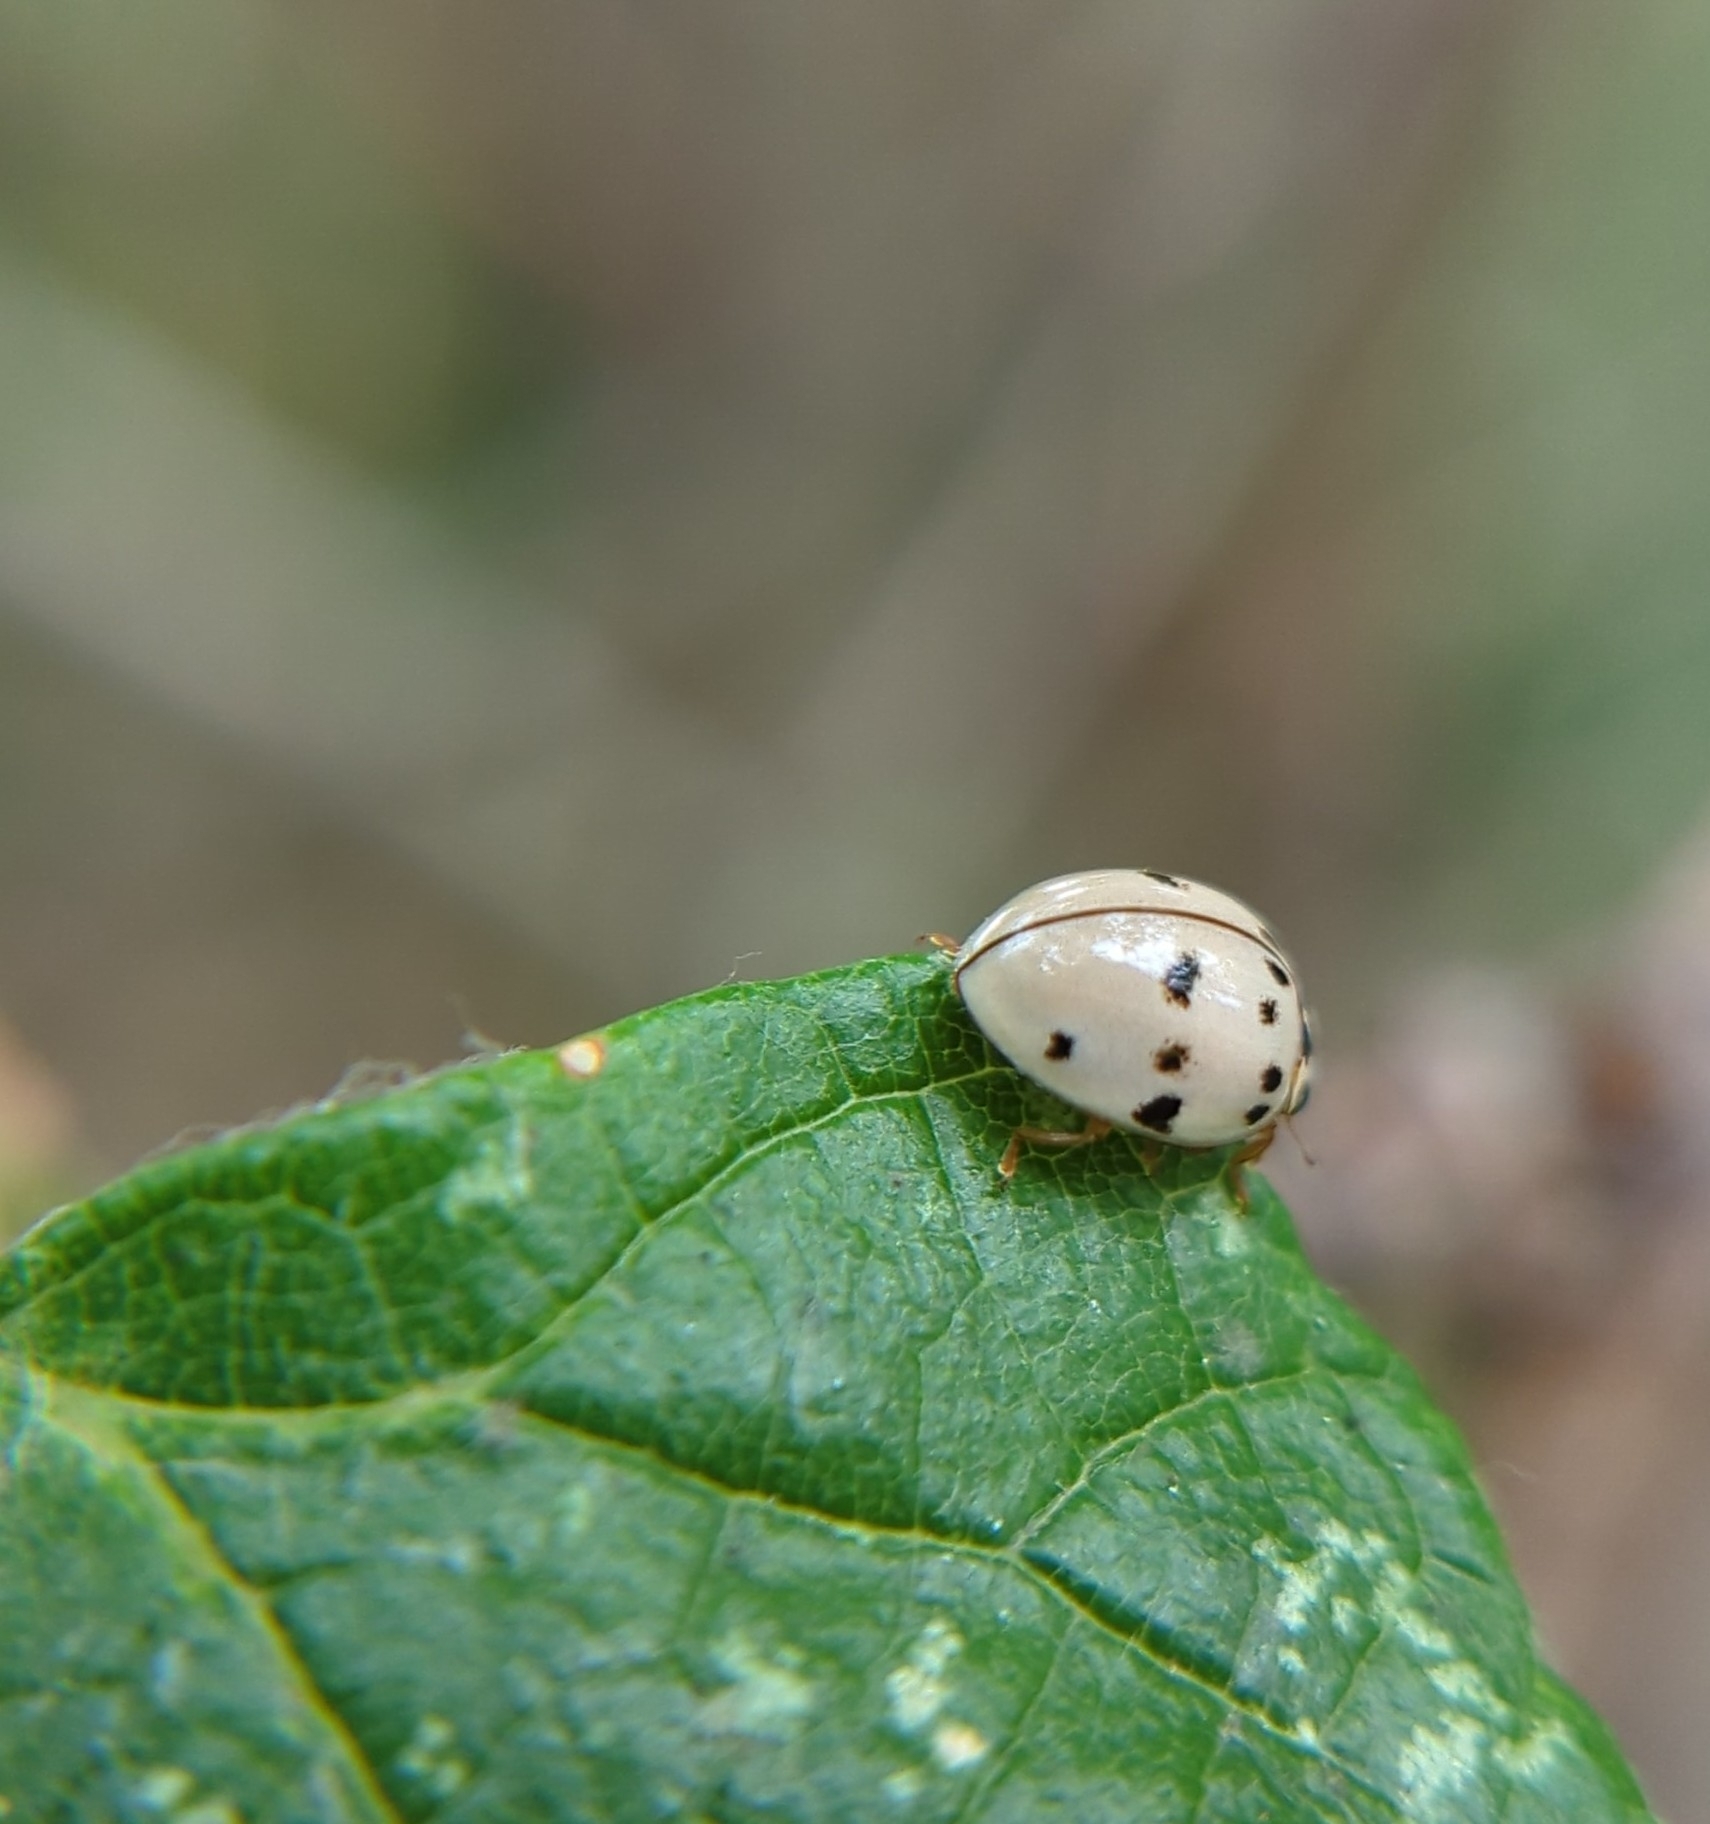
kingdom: Animalia
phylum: Arthropoda
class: Insecta
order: Coleoptera
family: Coccinellidae
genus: Olla
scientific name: Olla v-nigrum
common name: Ashy gray lady beetle
